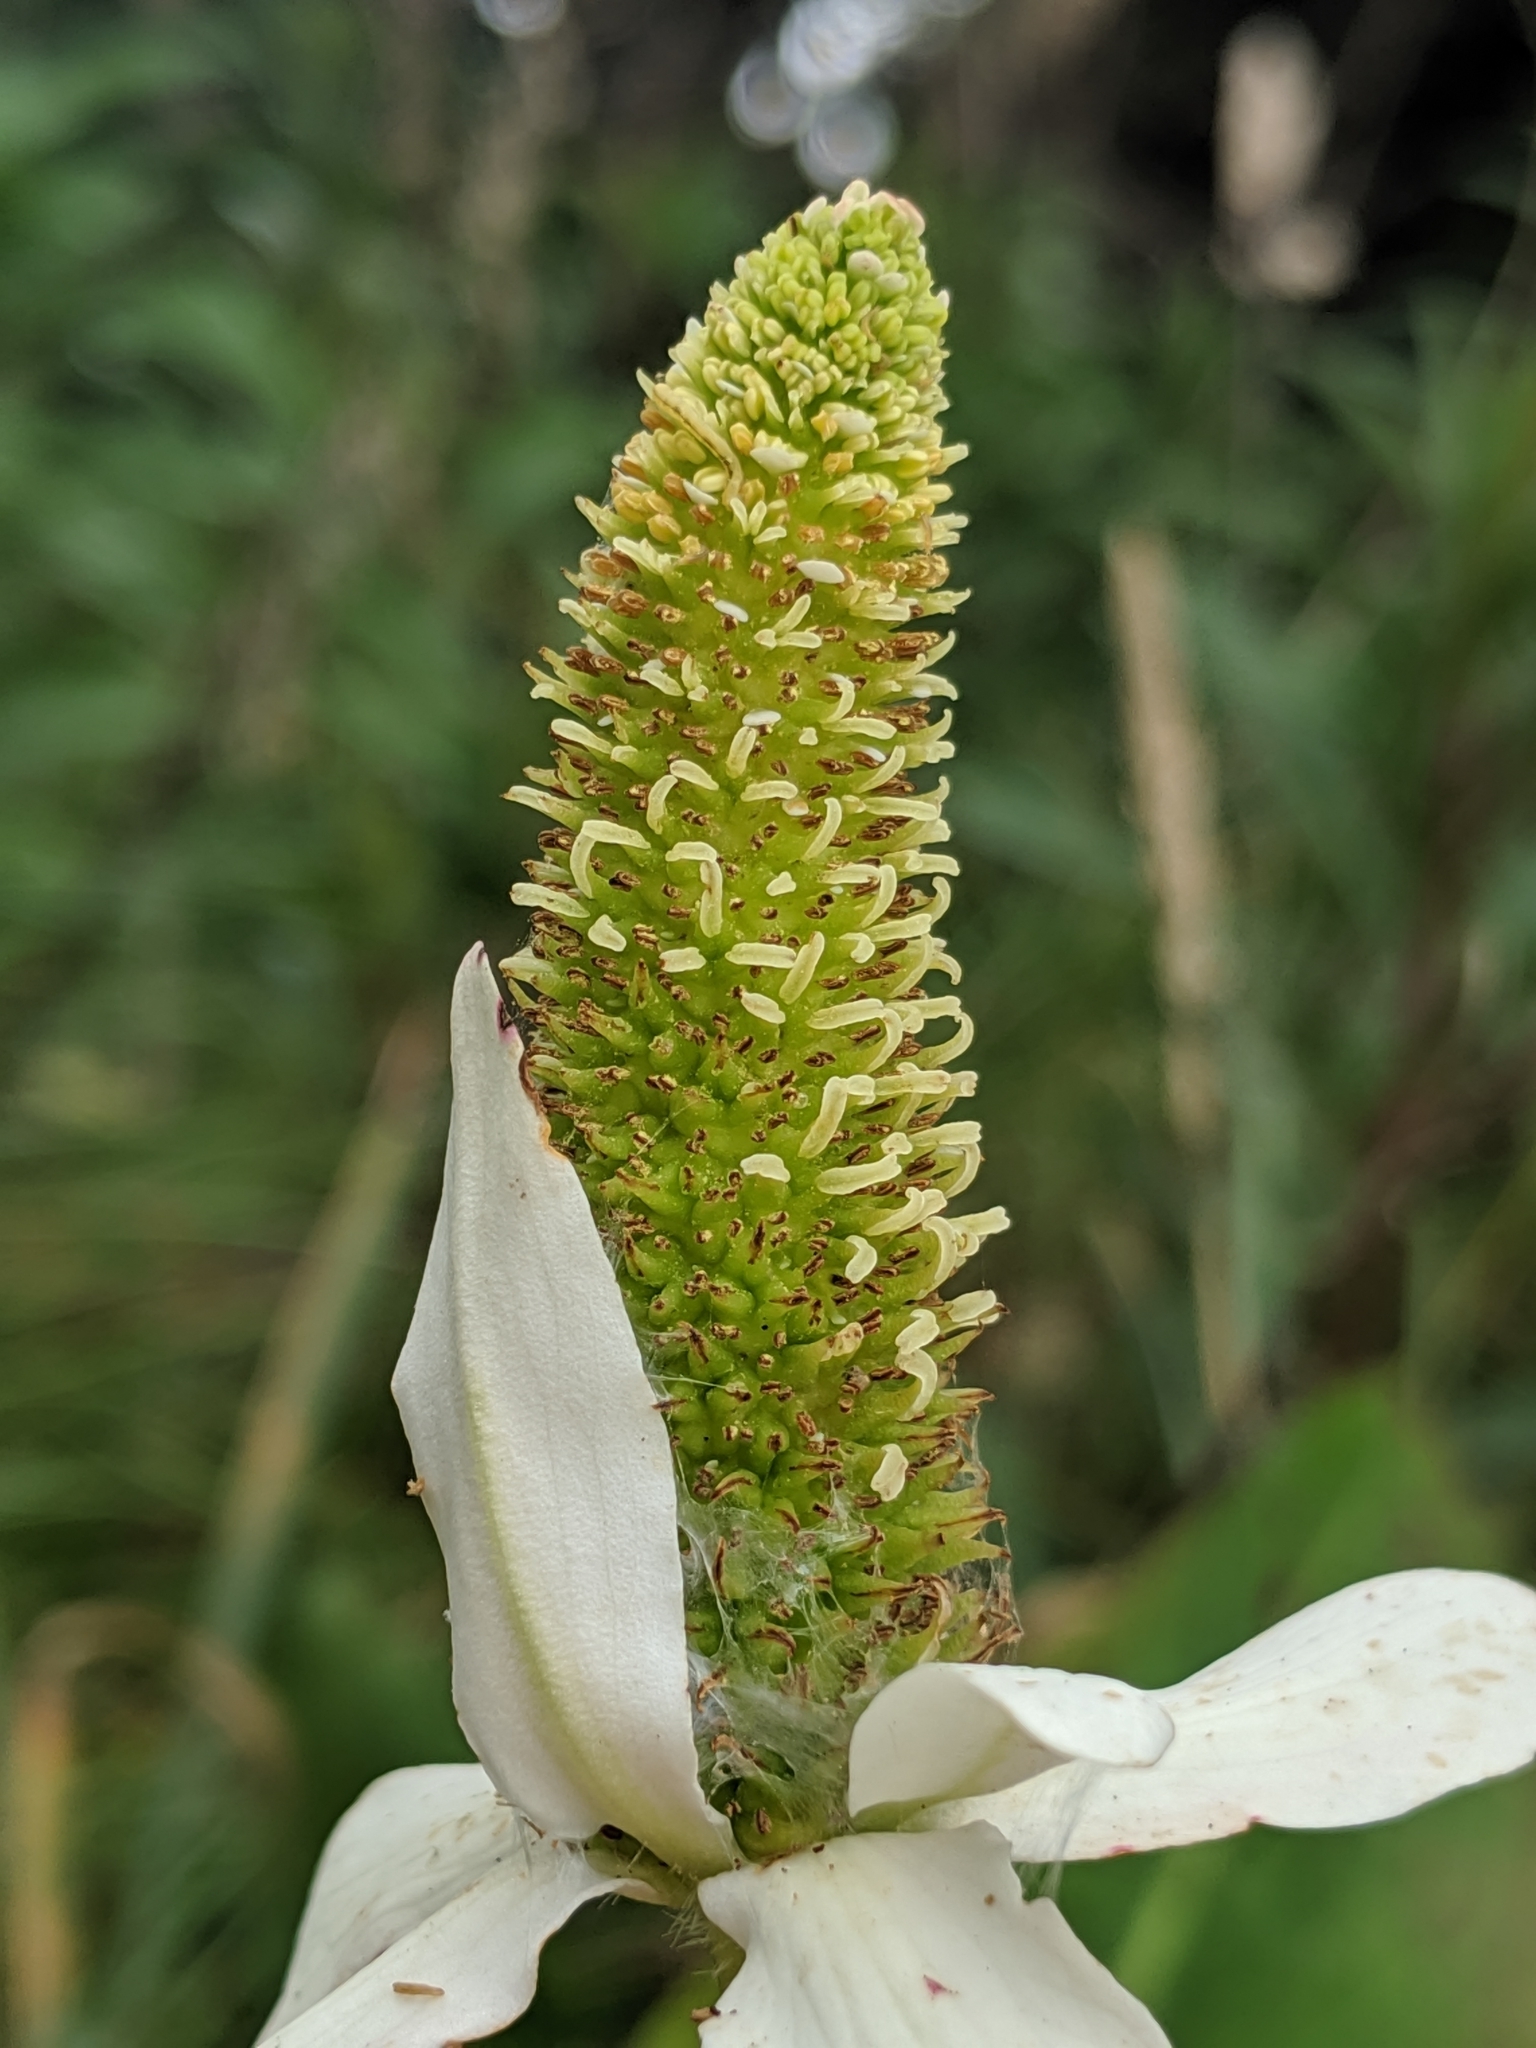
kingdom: Plantae
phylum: Tracheophyta
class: Magnoliopsida
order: Piperales
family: Saururaceae
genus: Anemopsis
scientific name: Anemopsis californica
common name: Apache-beads
